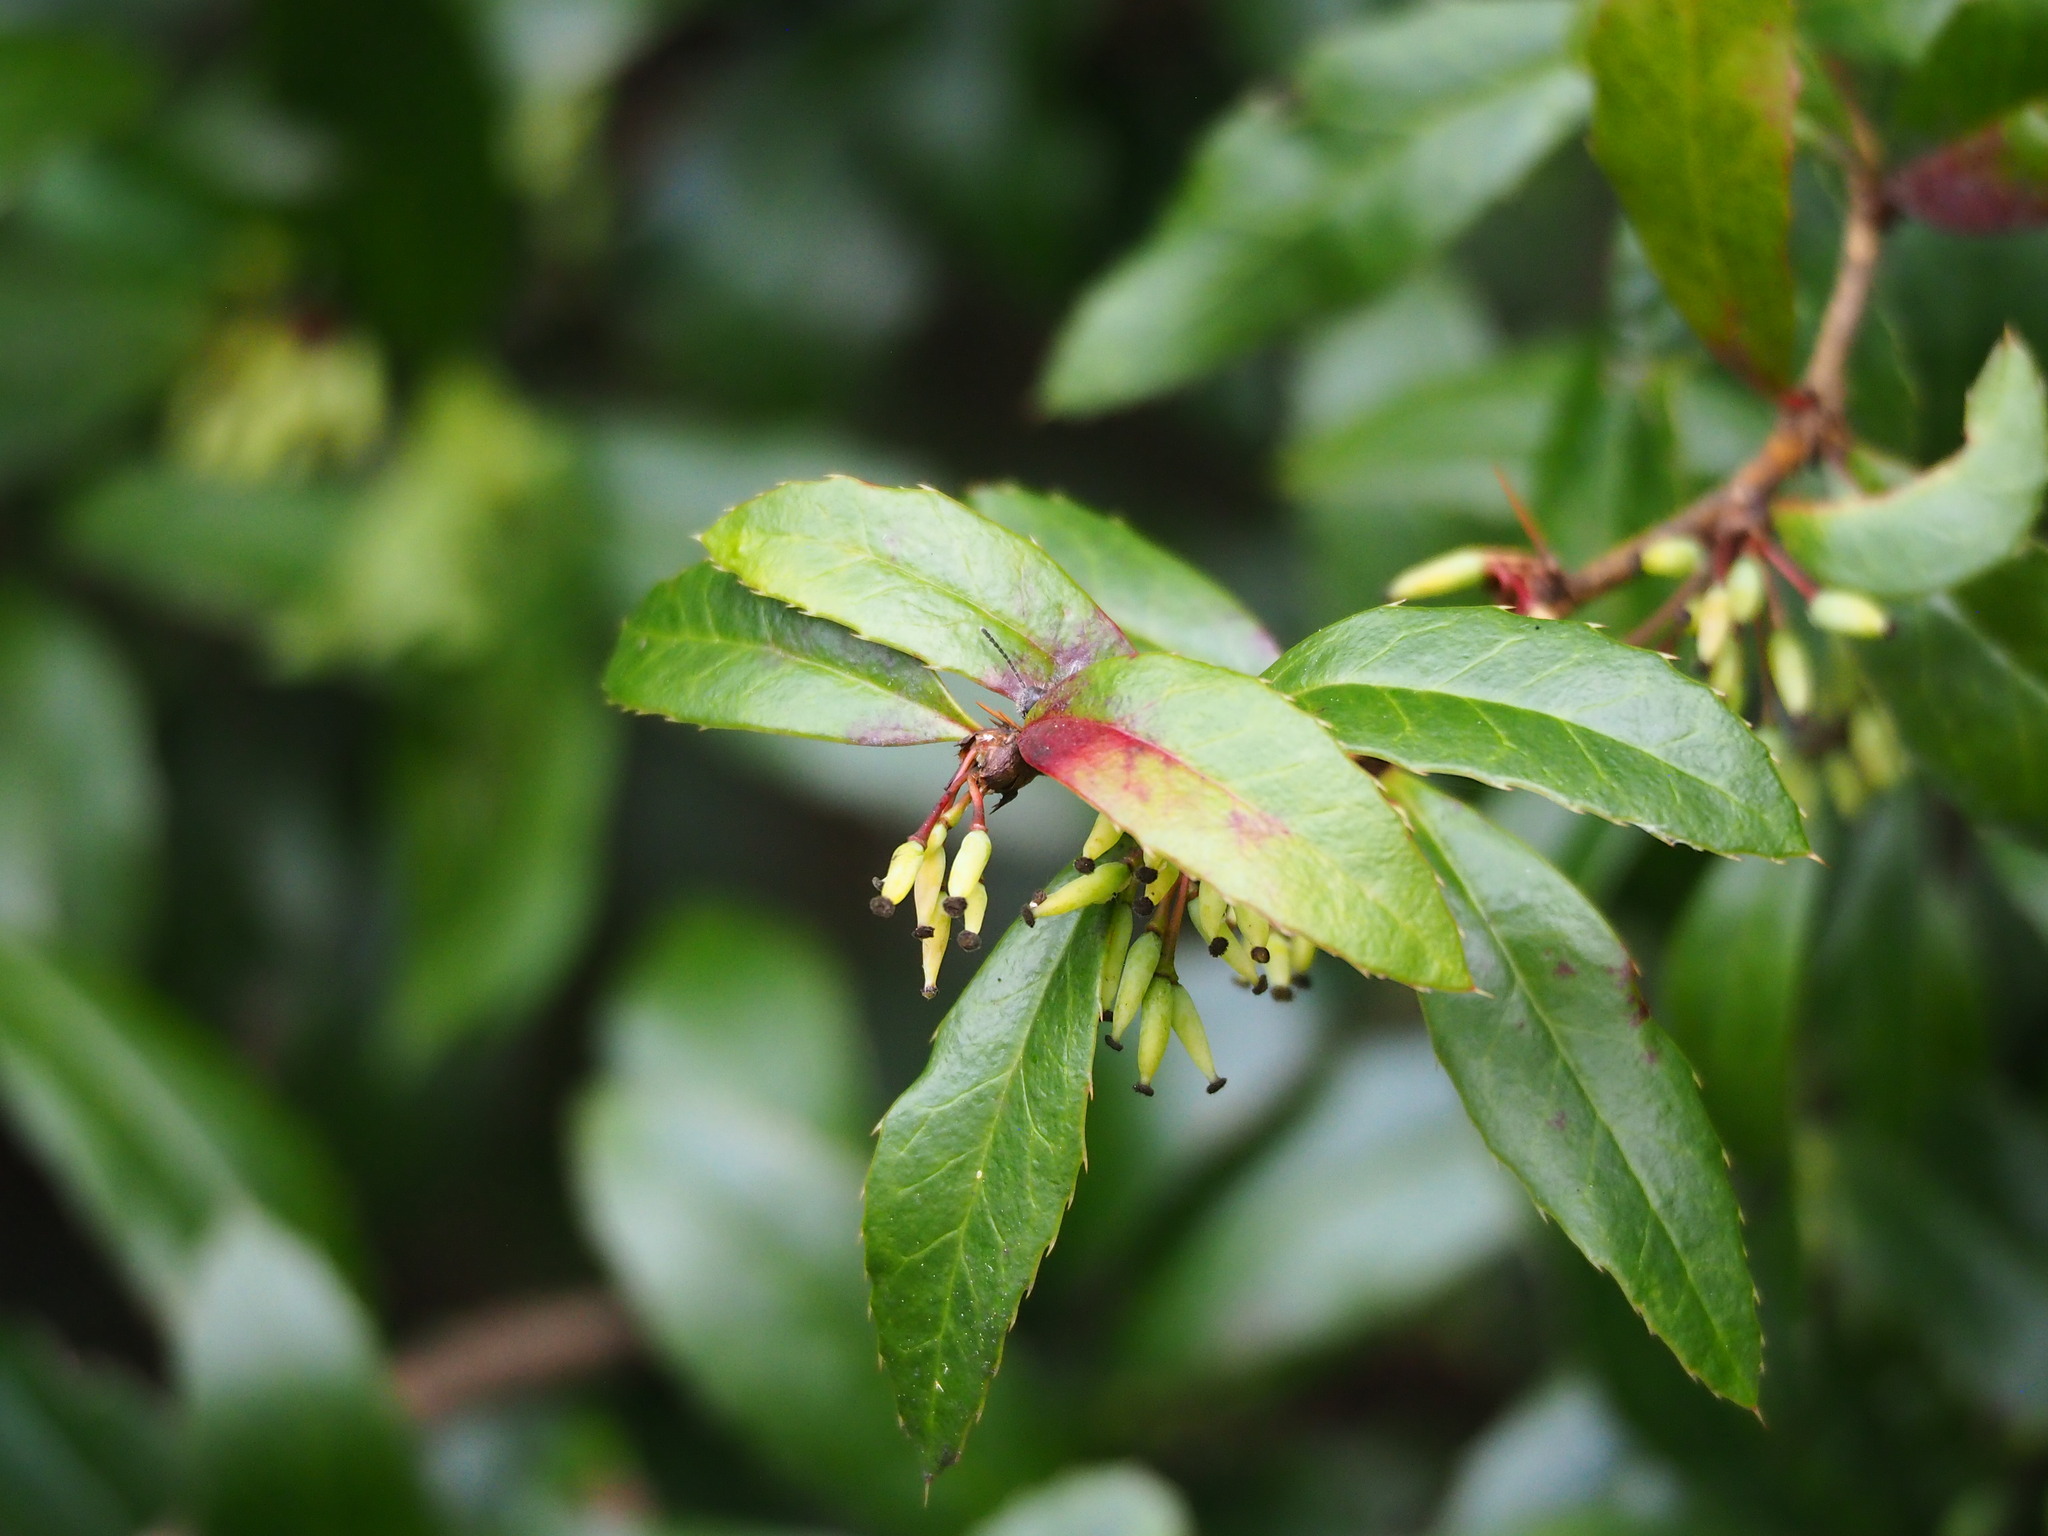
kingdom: Plantae
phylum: Tracheophyta
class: Magnoliopsida
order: Ranunculales
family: Berberidaceae
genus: Berberis
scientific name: Berberis kawakamii
